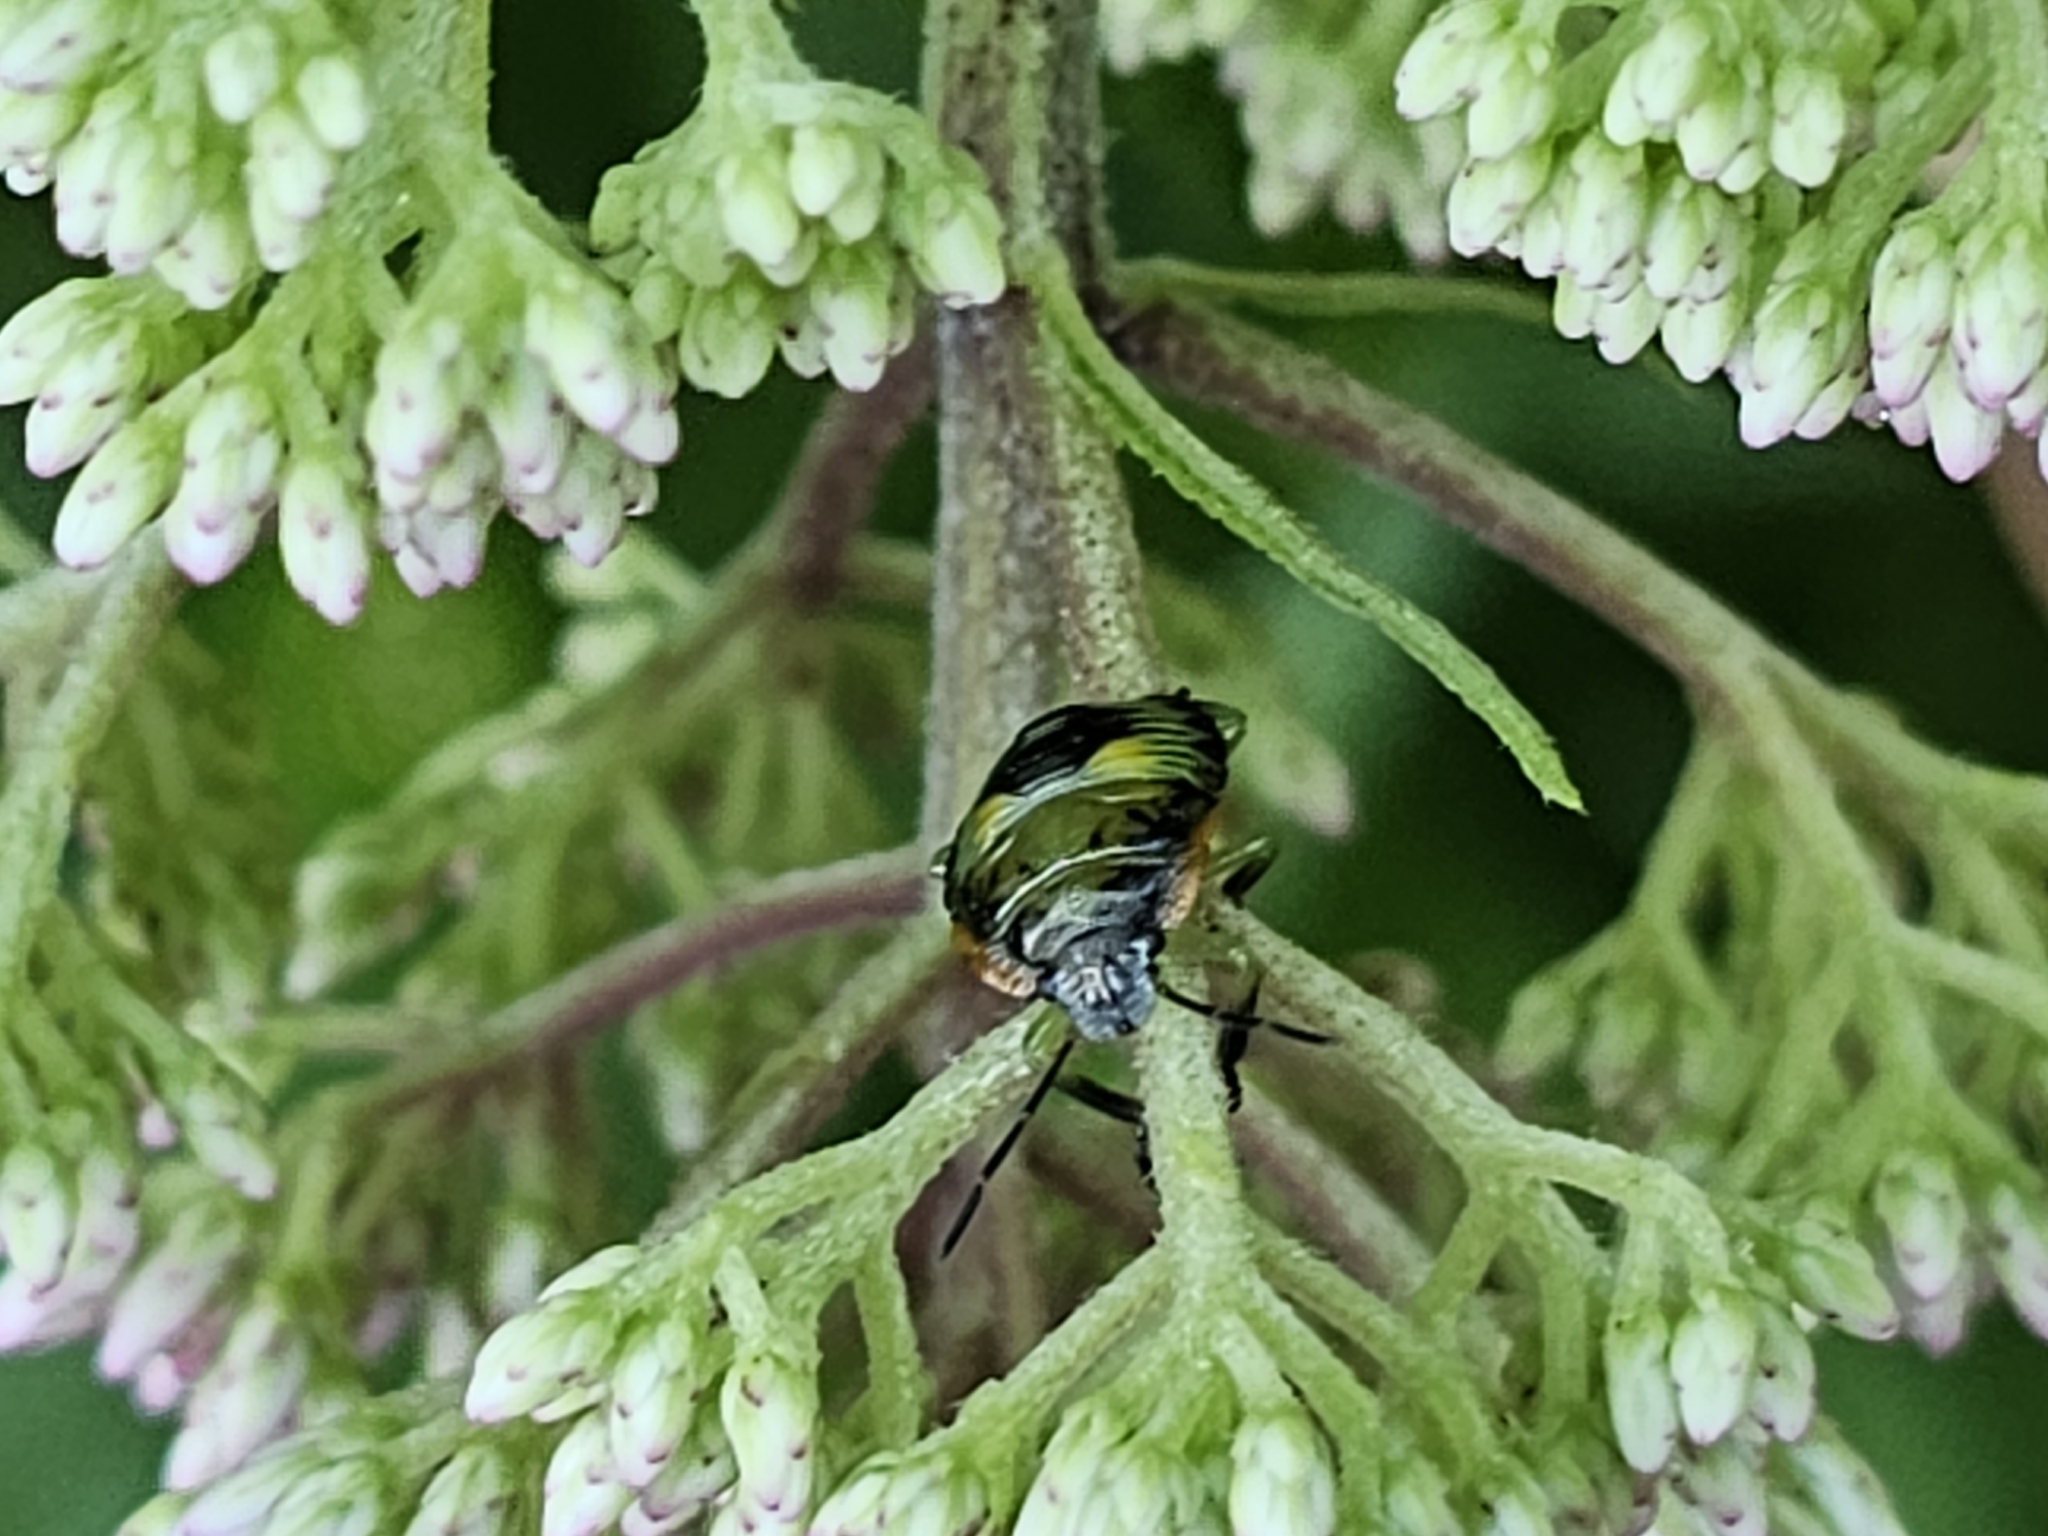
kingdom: Animalia
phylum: Arthropoda
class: Insecta
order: Hemiptera
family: Pentatomidae
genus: Chinavia
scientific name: Chinavia hilaris
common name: Green stink bug
